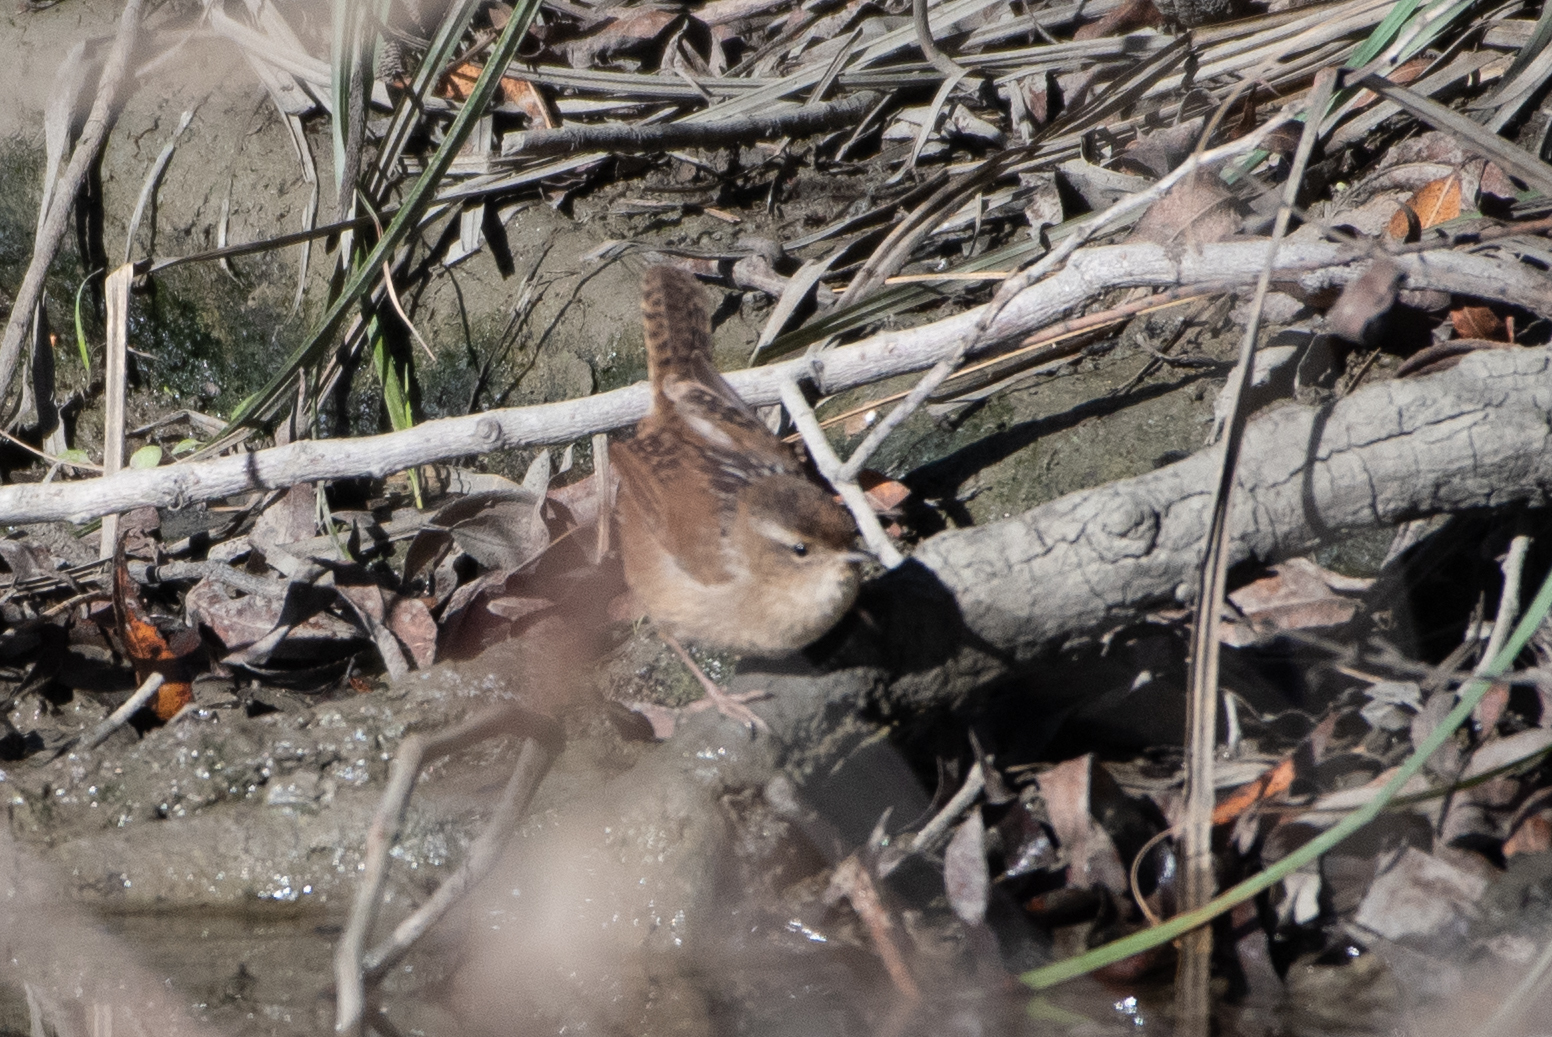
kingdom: Animalia
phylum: Chordata
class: Aves
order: Passeriformes
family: Troglodytidae
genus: Cistothorus
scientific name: Cistothorus palustris
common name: Marsh wren
